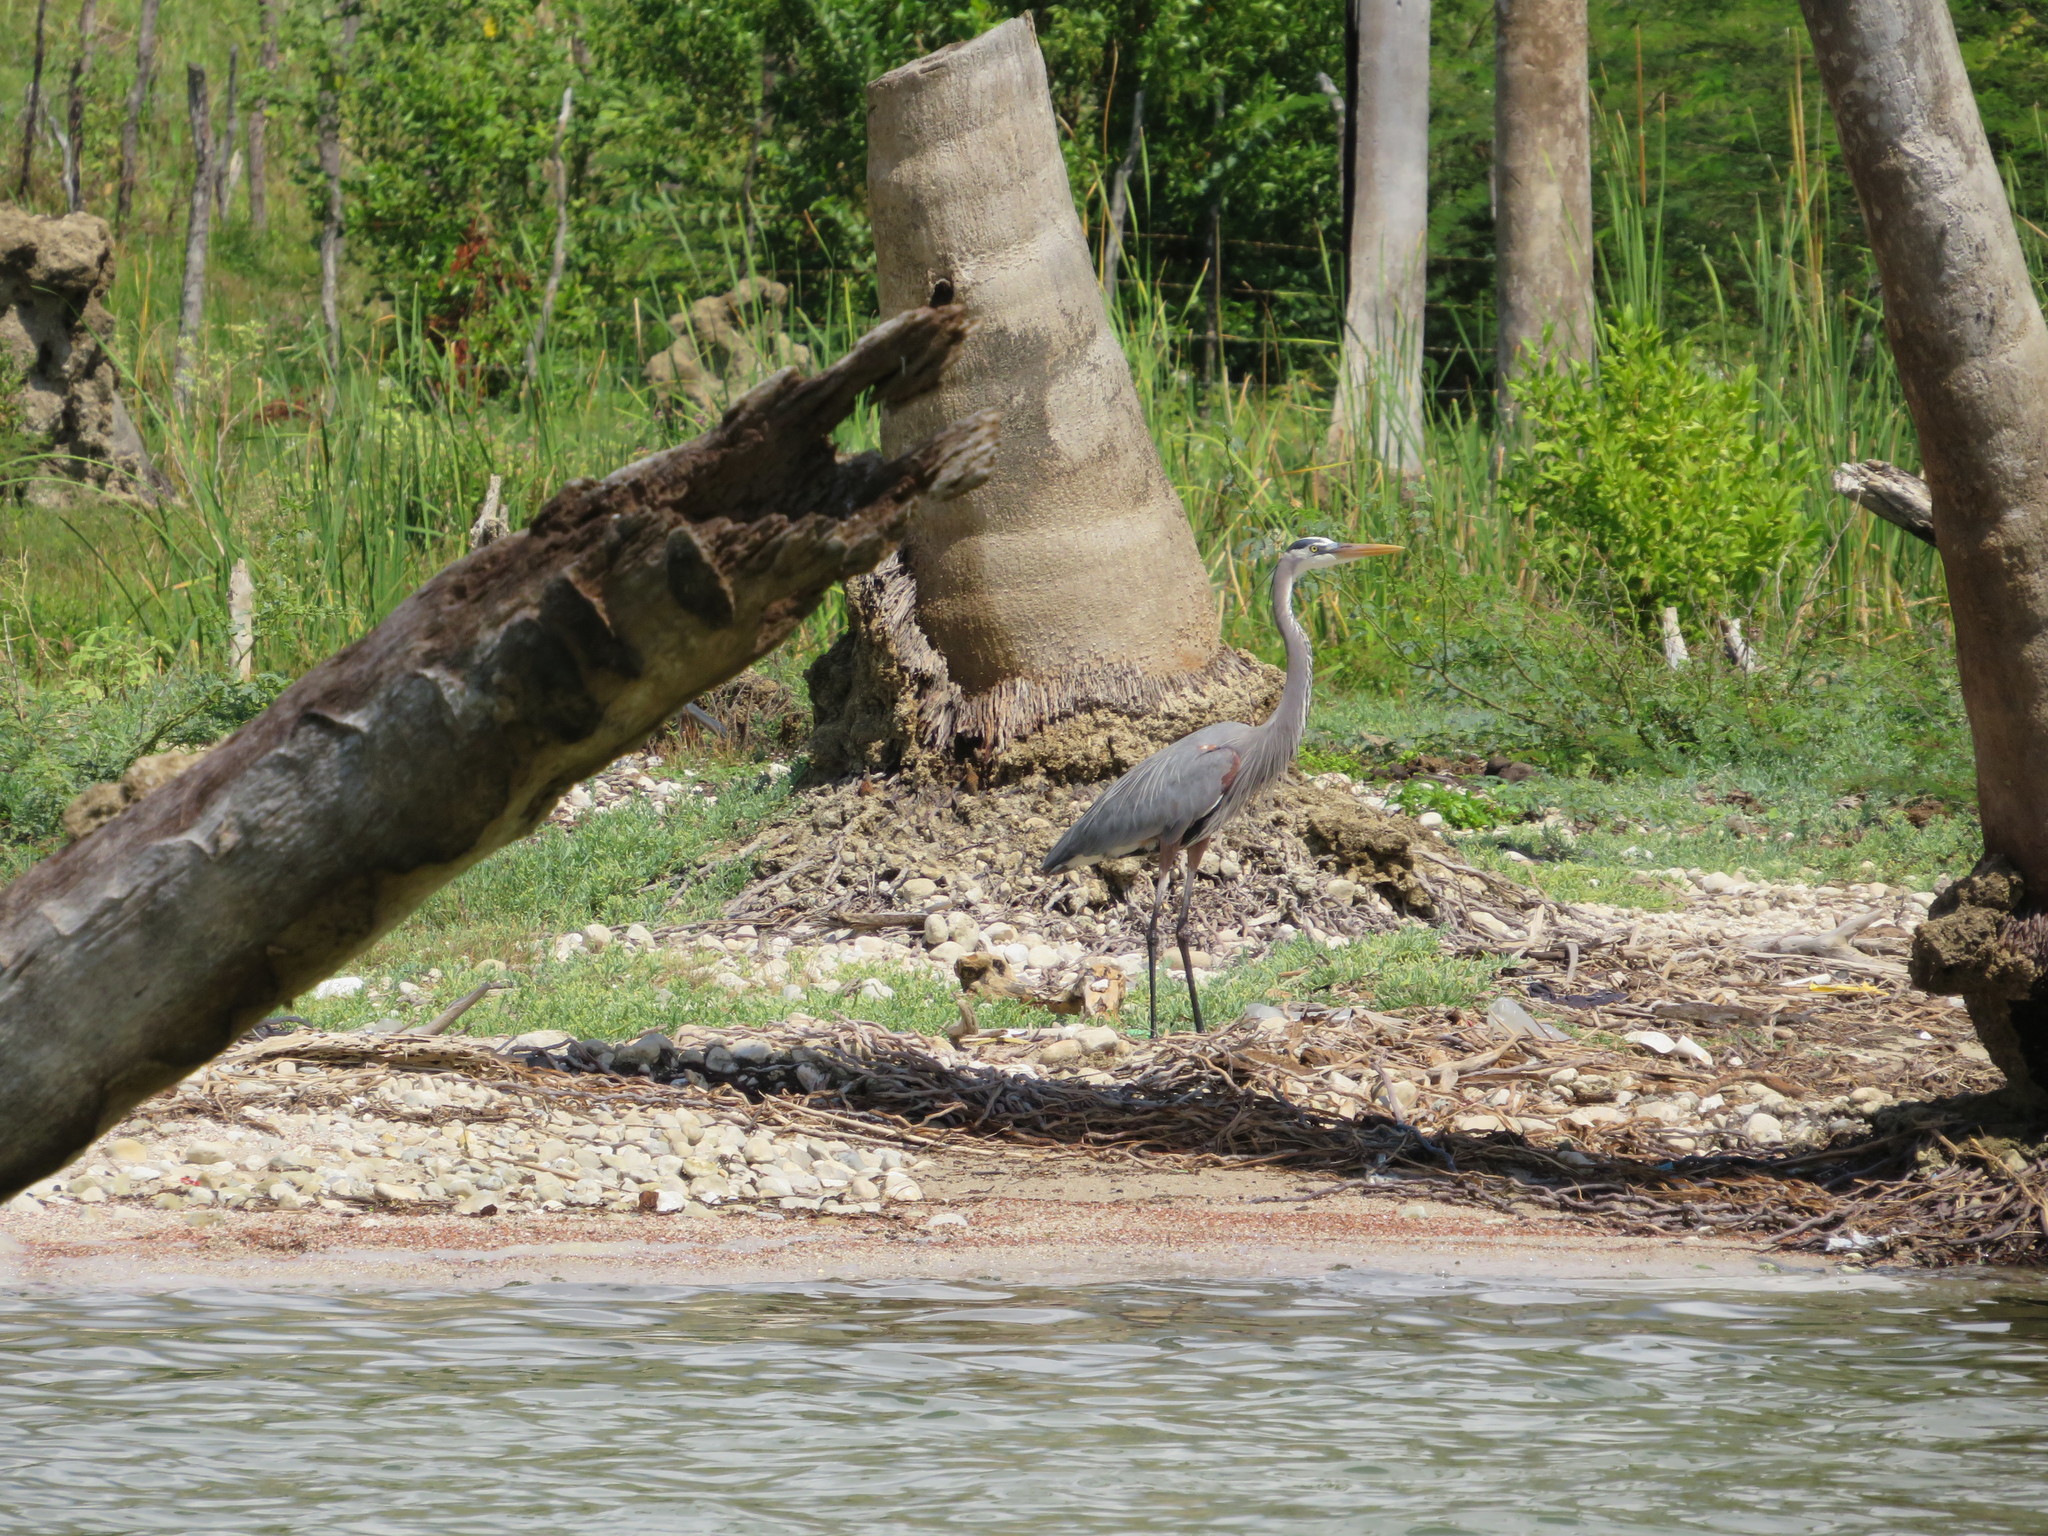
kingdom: Animalia
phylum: Chordata
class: Aves
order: Pelecaniformes
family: Ardeidae
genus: Ardea
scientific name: Ardea herodias
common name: Great blue heron
